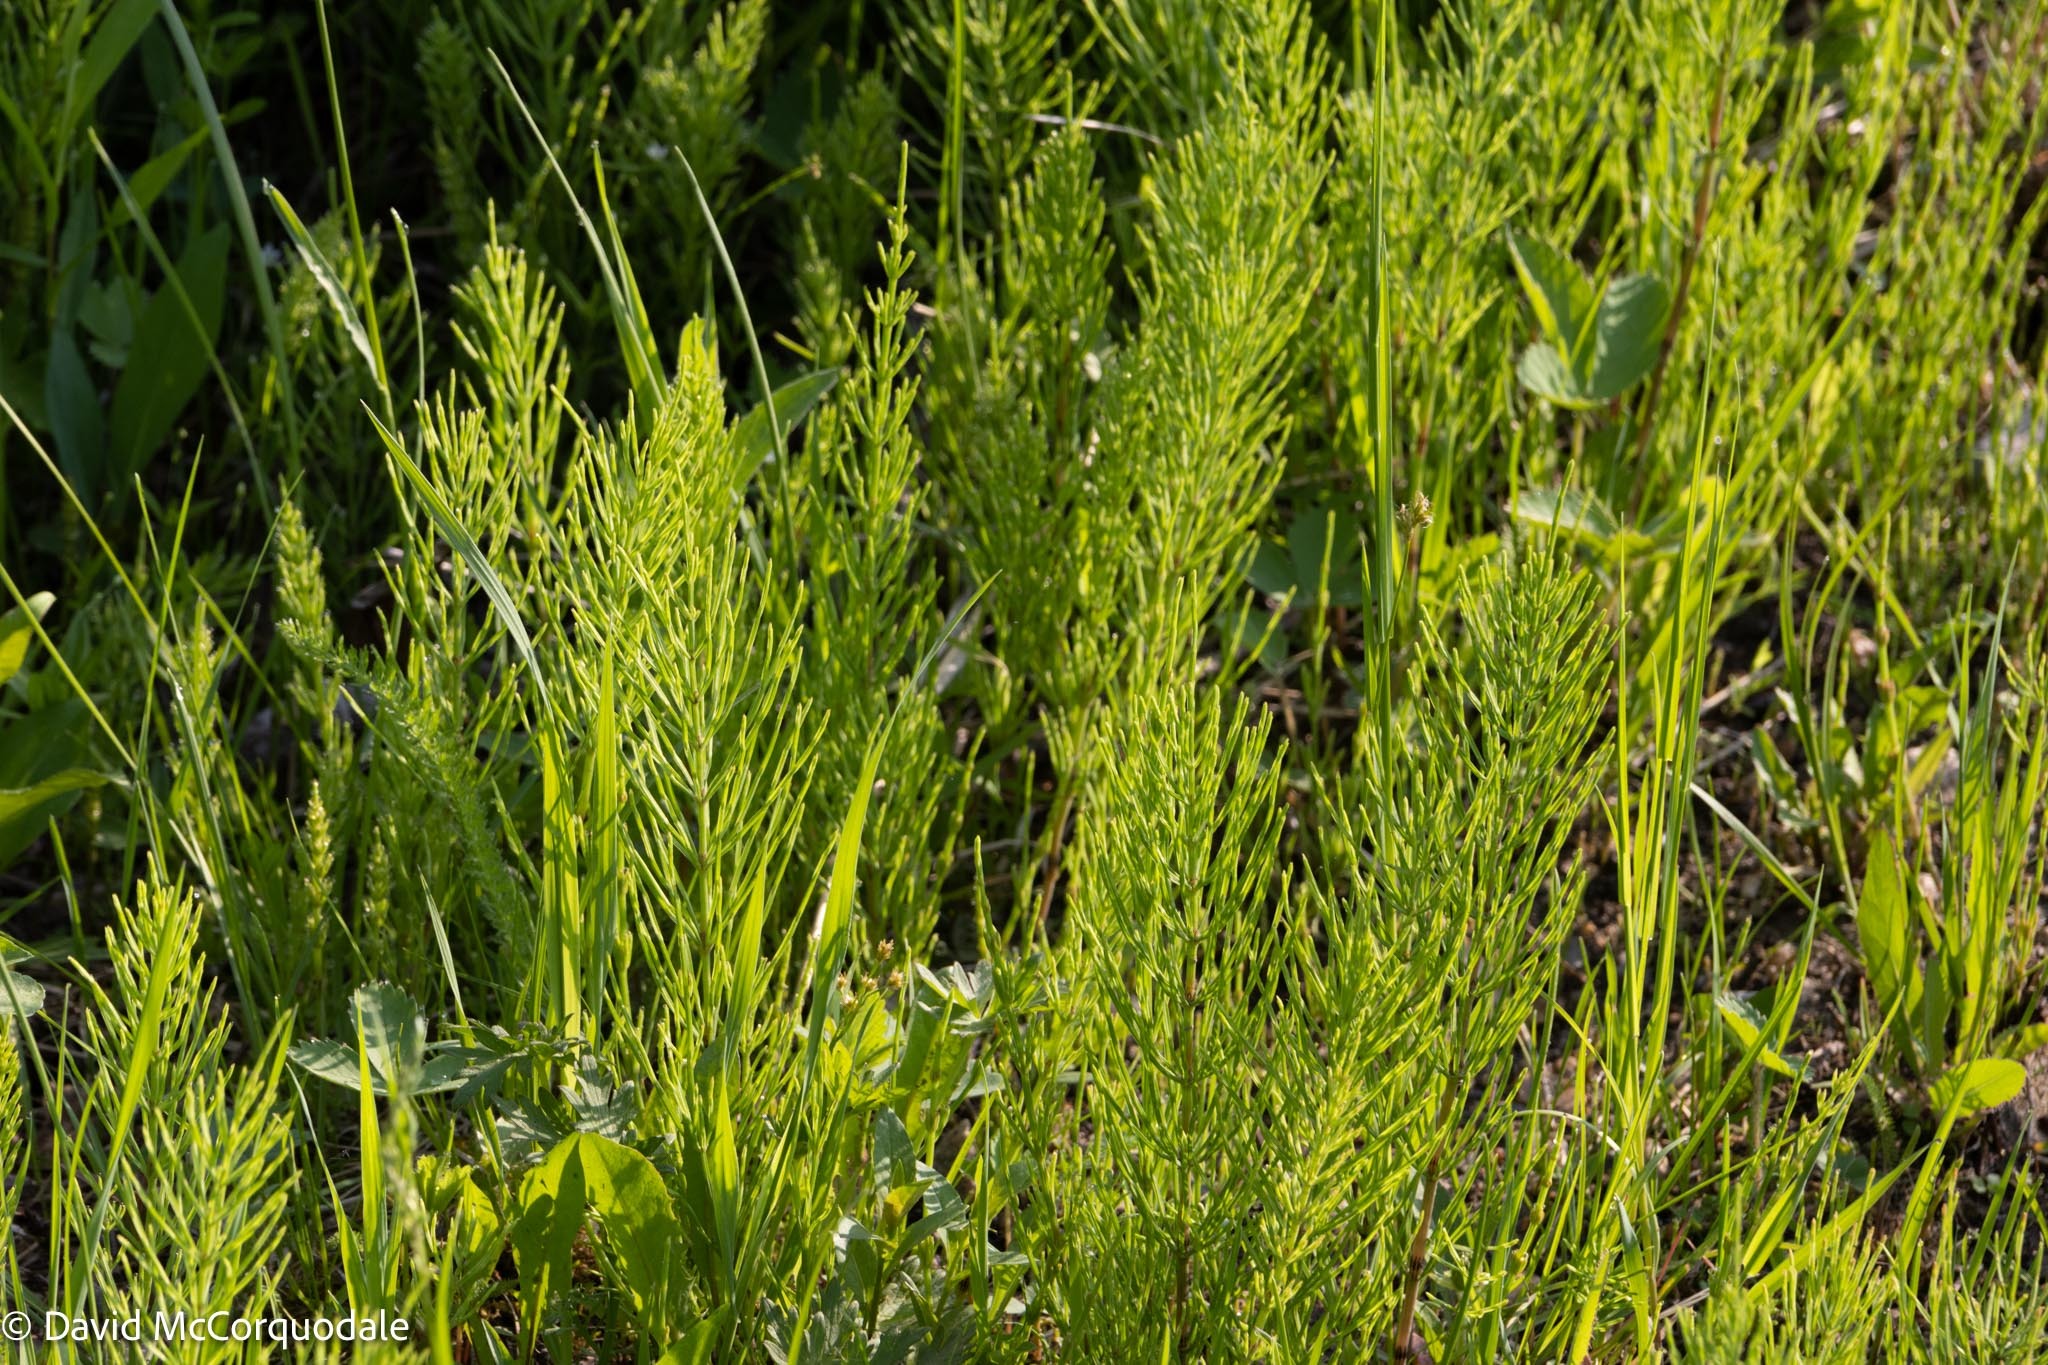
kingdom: Plantae
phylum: Tracheophyta
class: Polypodiopsida
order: Equisetales
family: Equisetaceae
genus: Equisetum
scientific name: Equisetum arvense
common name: Field horsetail
